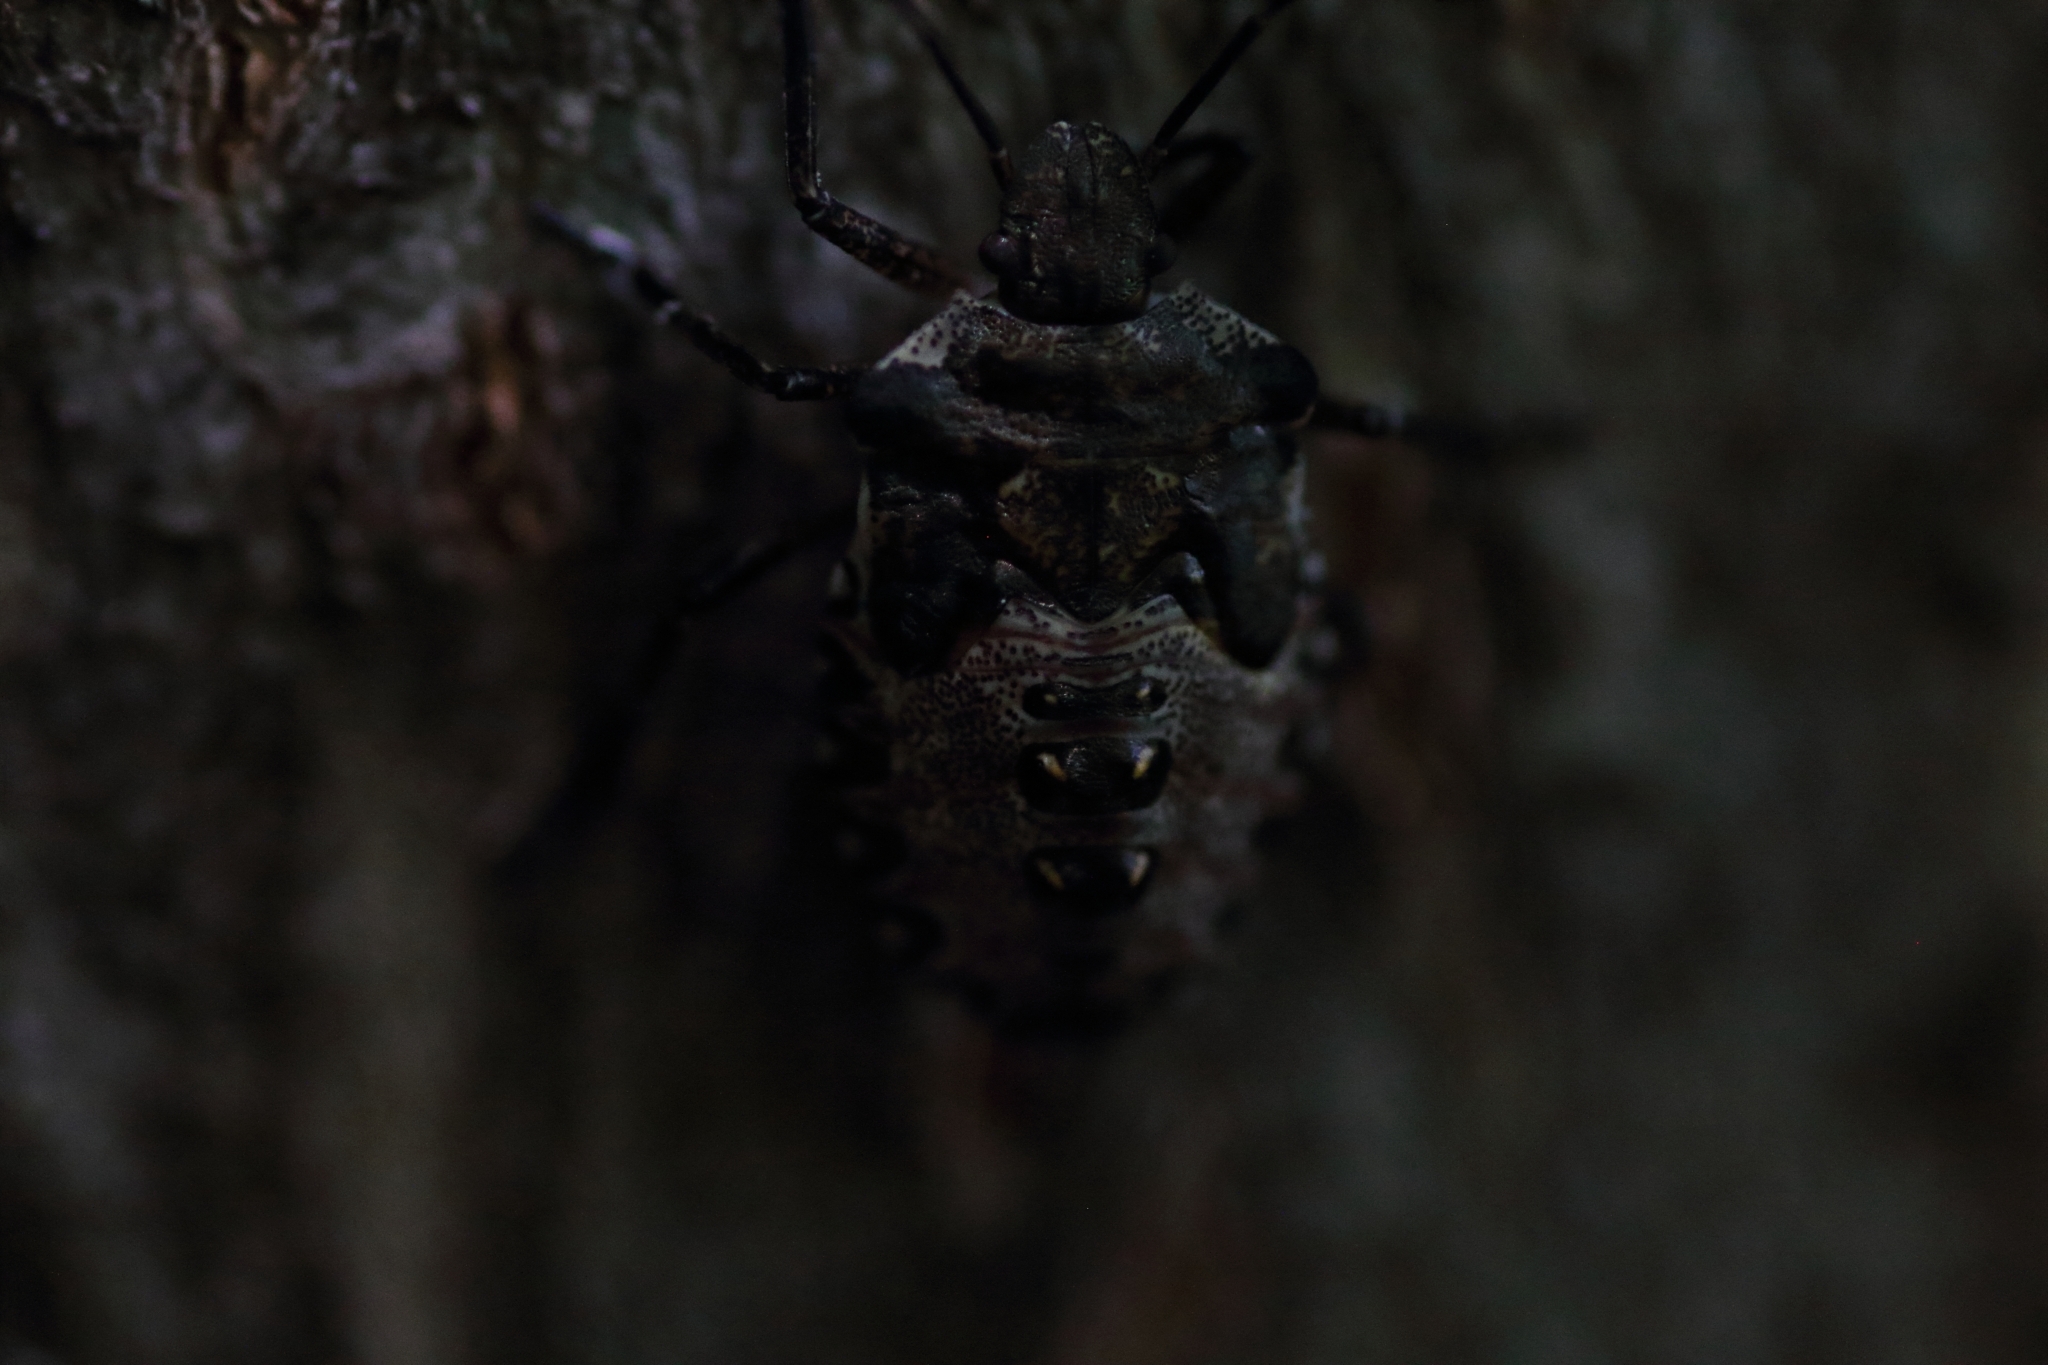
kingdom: Animalia
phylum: Arthropoda
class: Insecta
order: Hemiptera
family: Pentatomidae
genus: Pentatoma
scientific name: Pentatoma rufipes
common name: Forest bug
